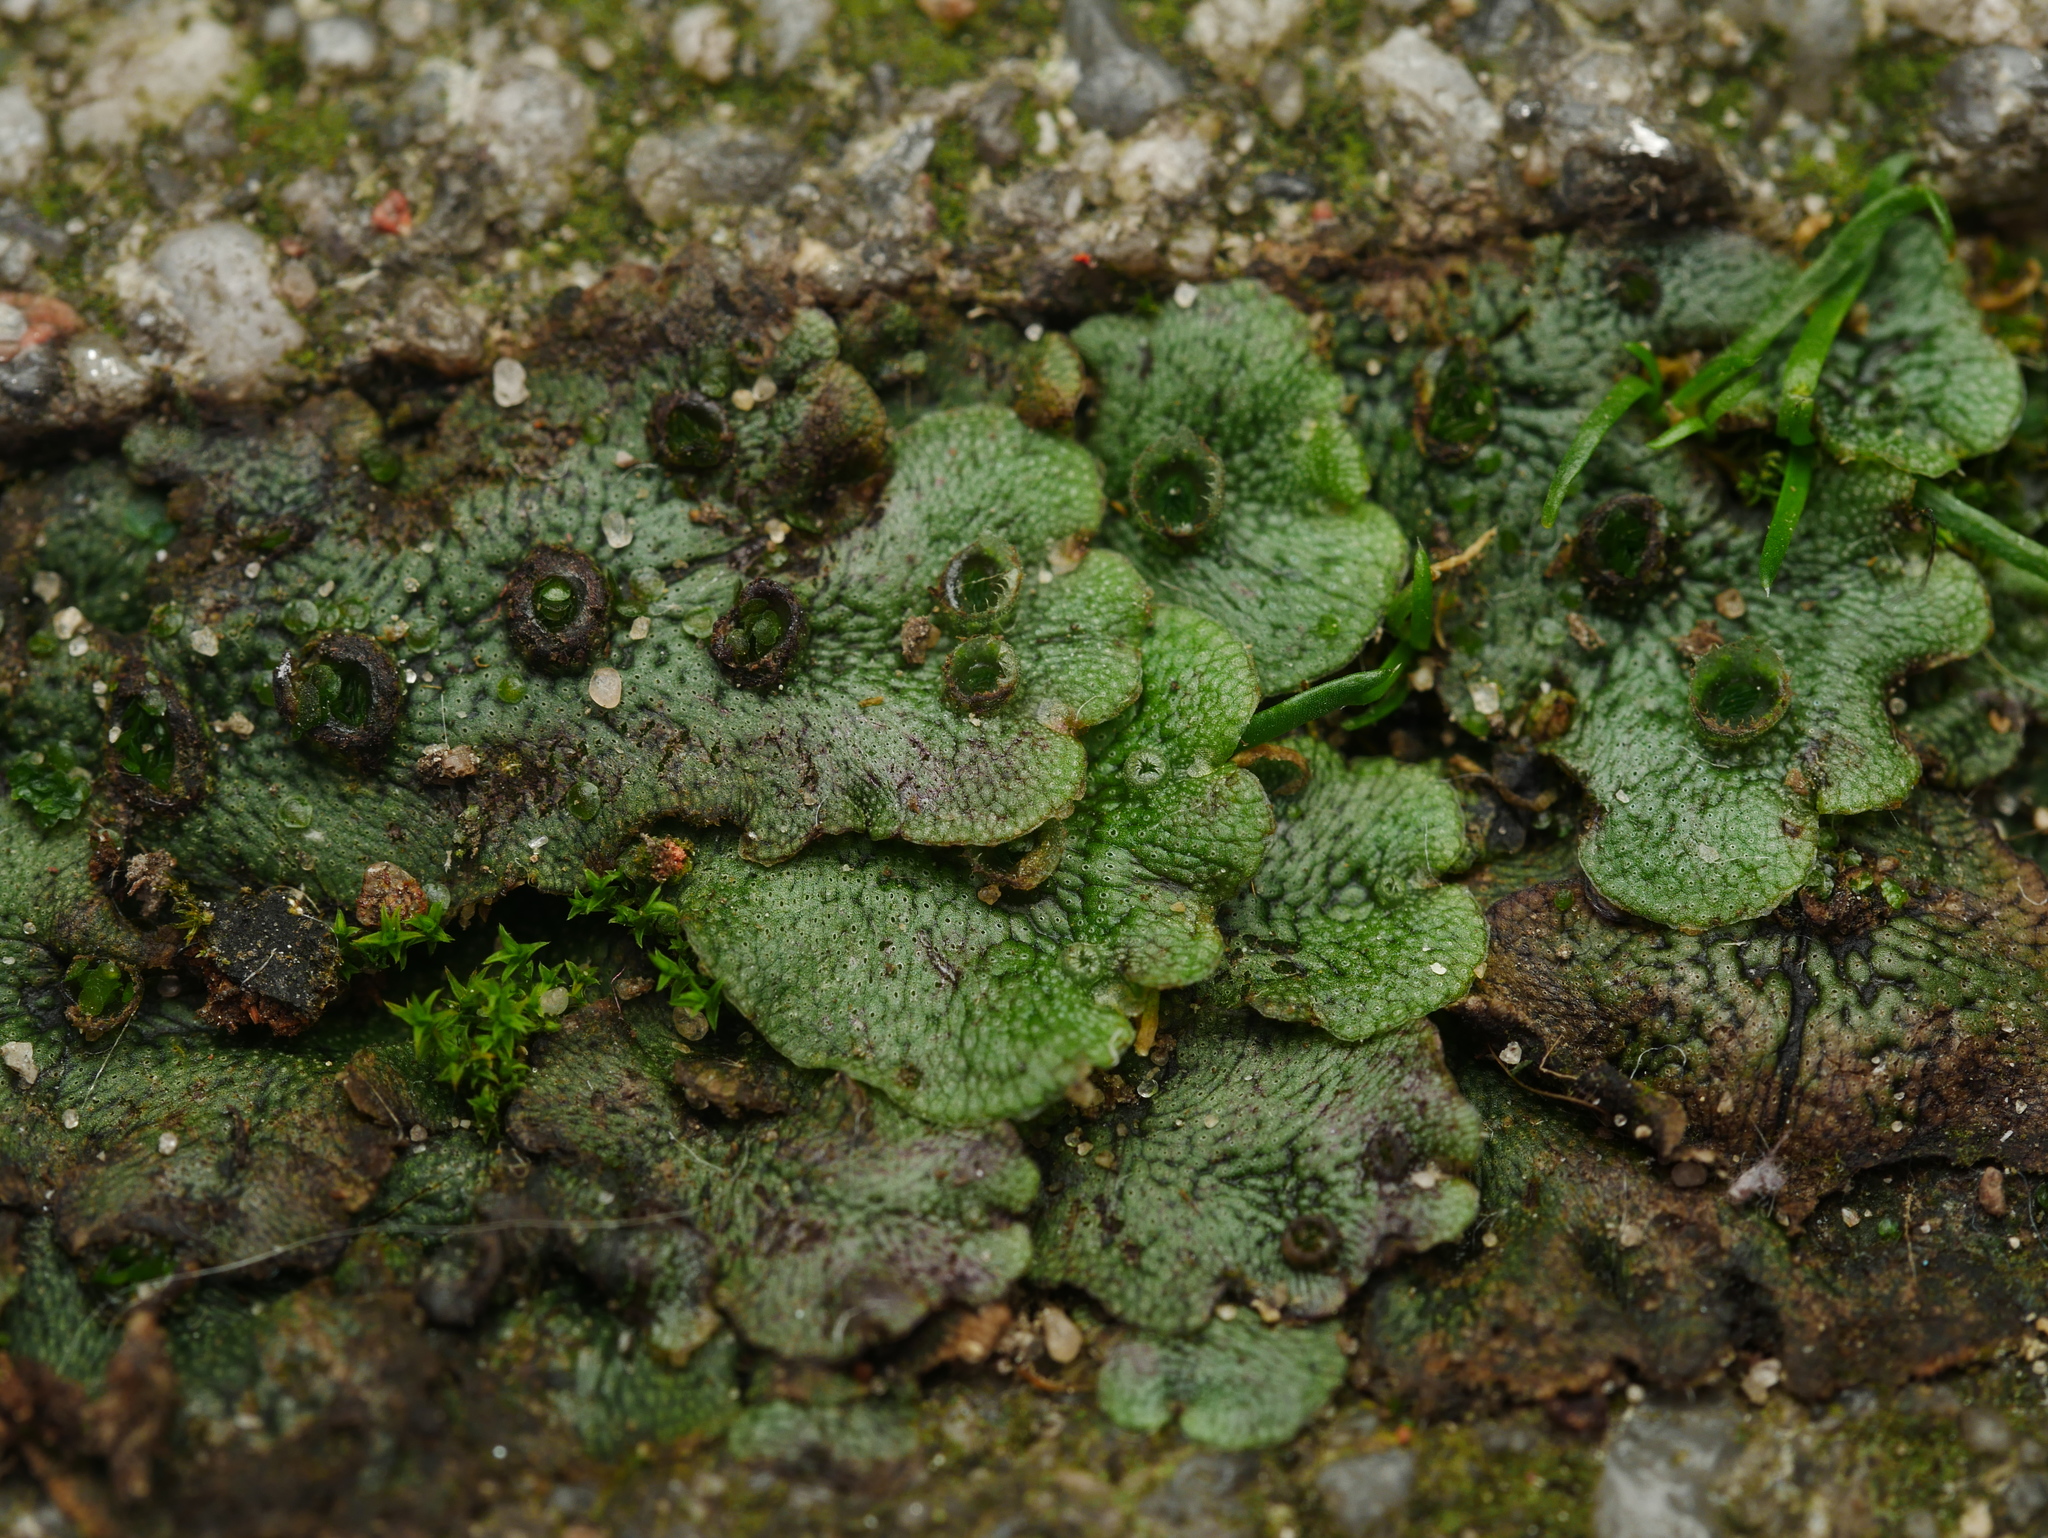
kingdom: Plantae
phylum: Marchantiophyta
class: Marchantiopsida
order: Marchantiales
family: Marchantiaceae
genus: Marchantia
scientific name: Marchantia polymorpha
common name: Common liverwort
